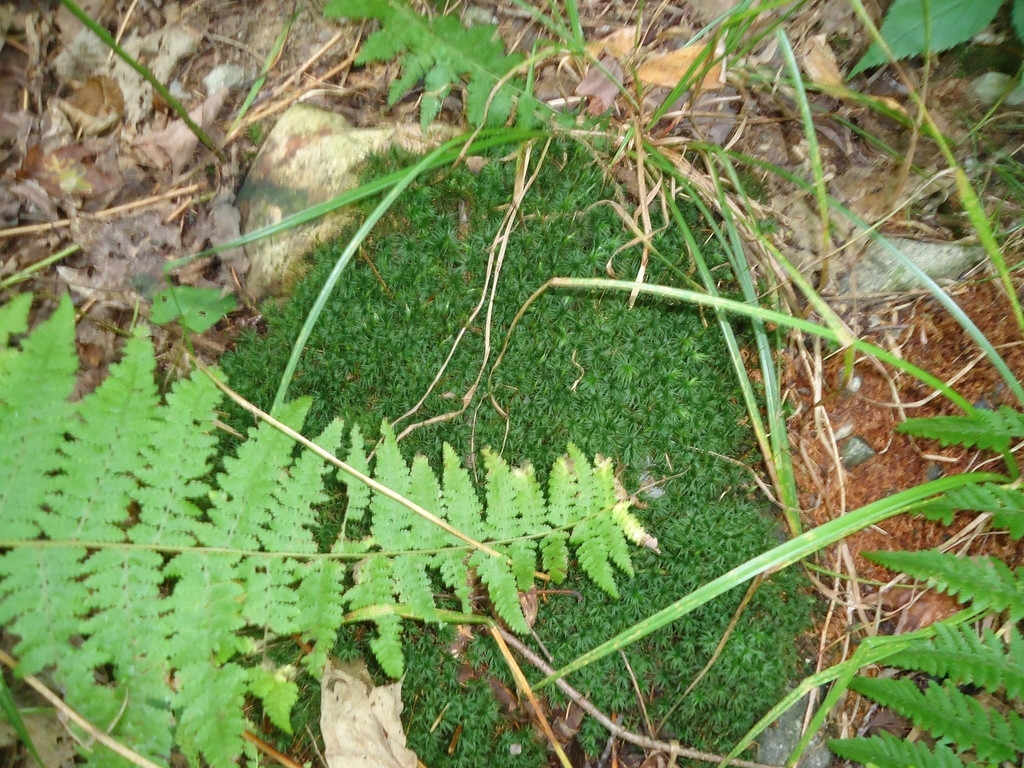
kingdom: Plantae
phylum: Tracheophyta
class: Polypodiopsida
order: Polypodiales
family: Dennstaedtiaceae
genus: Sitobolium
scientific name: Sitobolium punctilobum
